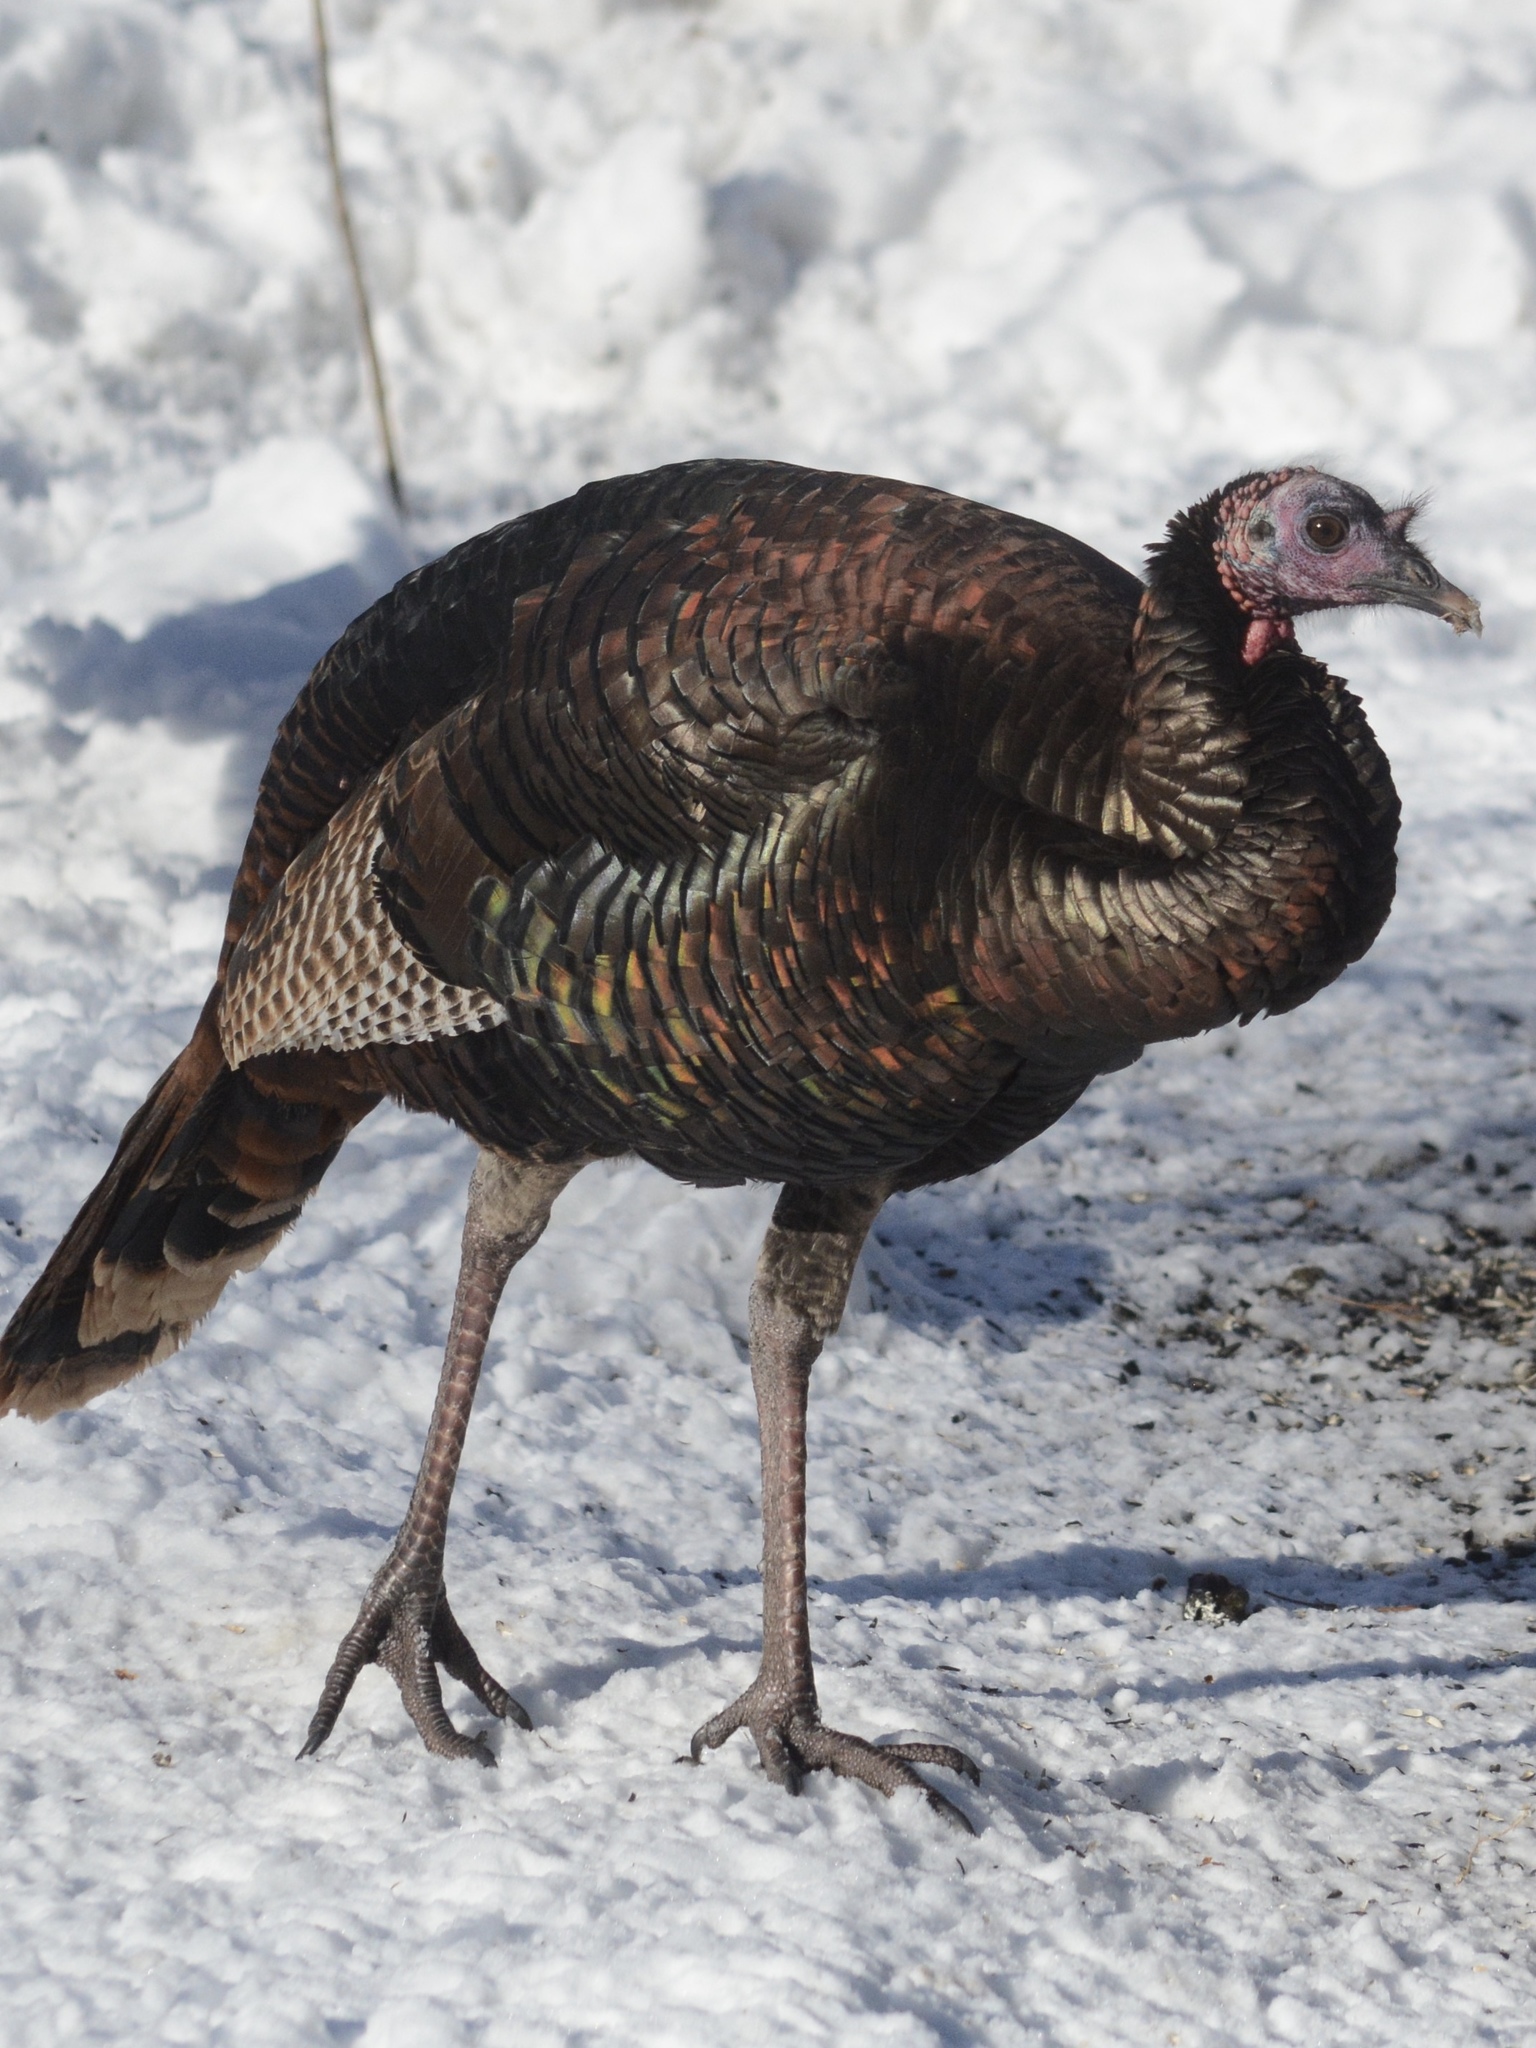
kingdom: Animalia
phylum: Chordata
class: Aves
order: Galliformes
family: Phasianidae
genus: Meleagris
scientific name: Meleagris gallopavo
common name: Wild turkey
